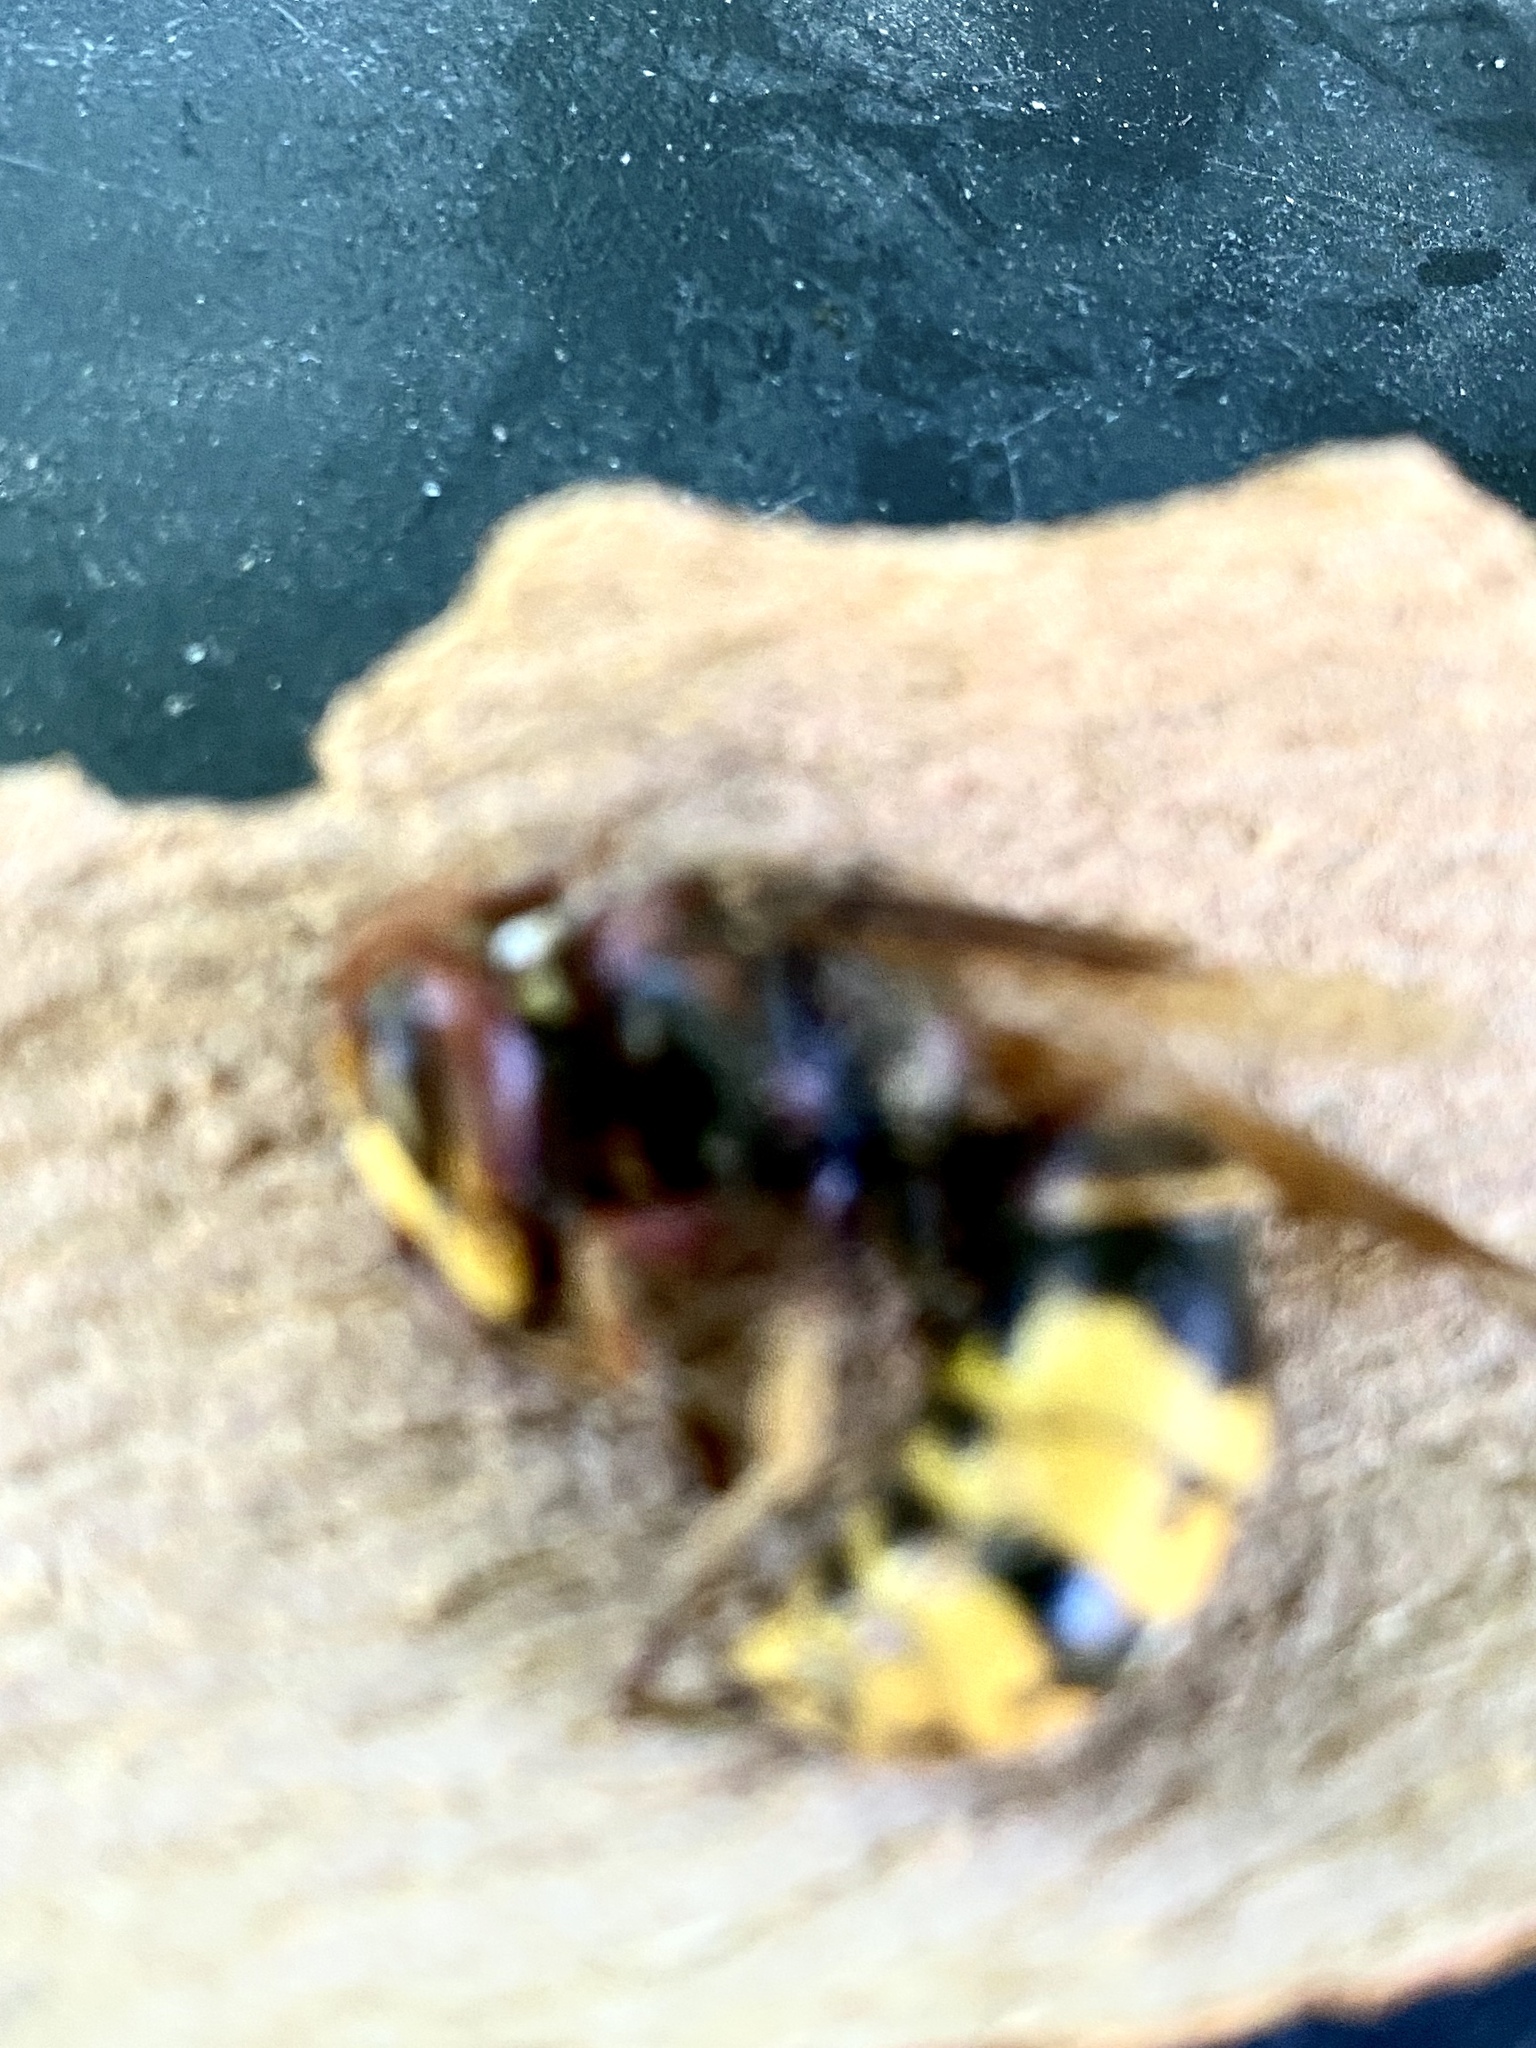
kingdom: Animalia
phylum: Arthropoda
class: Insecta
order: Hymenoptera
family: Vespidae
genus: Vespa
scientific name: Vespa crabro
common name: Hornet
